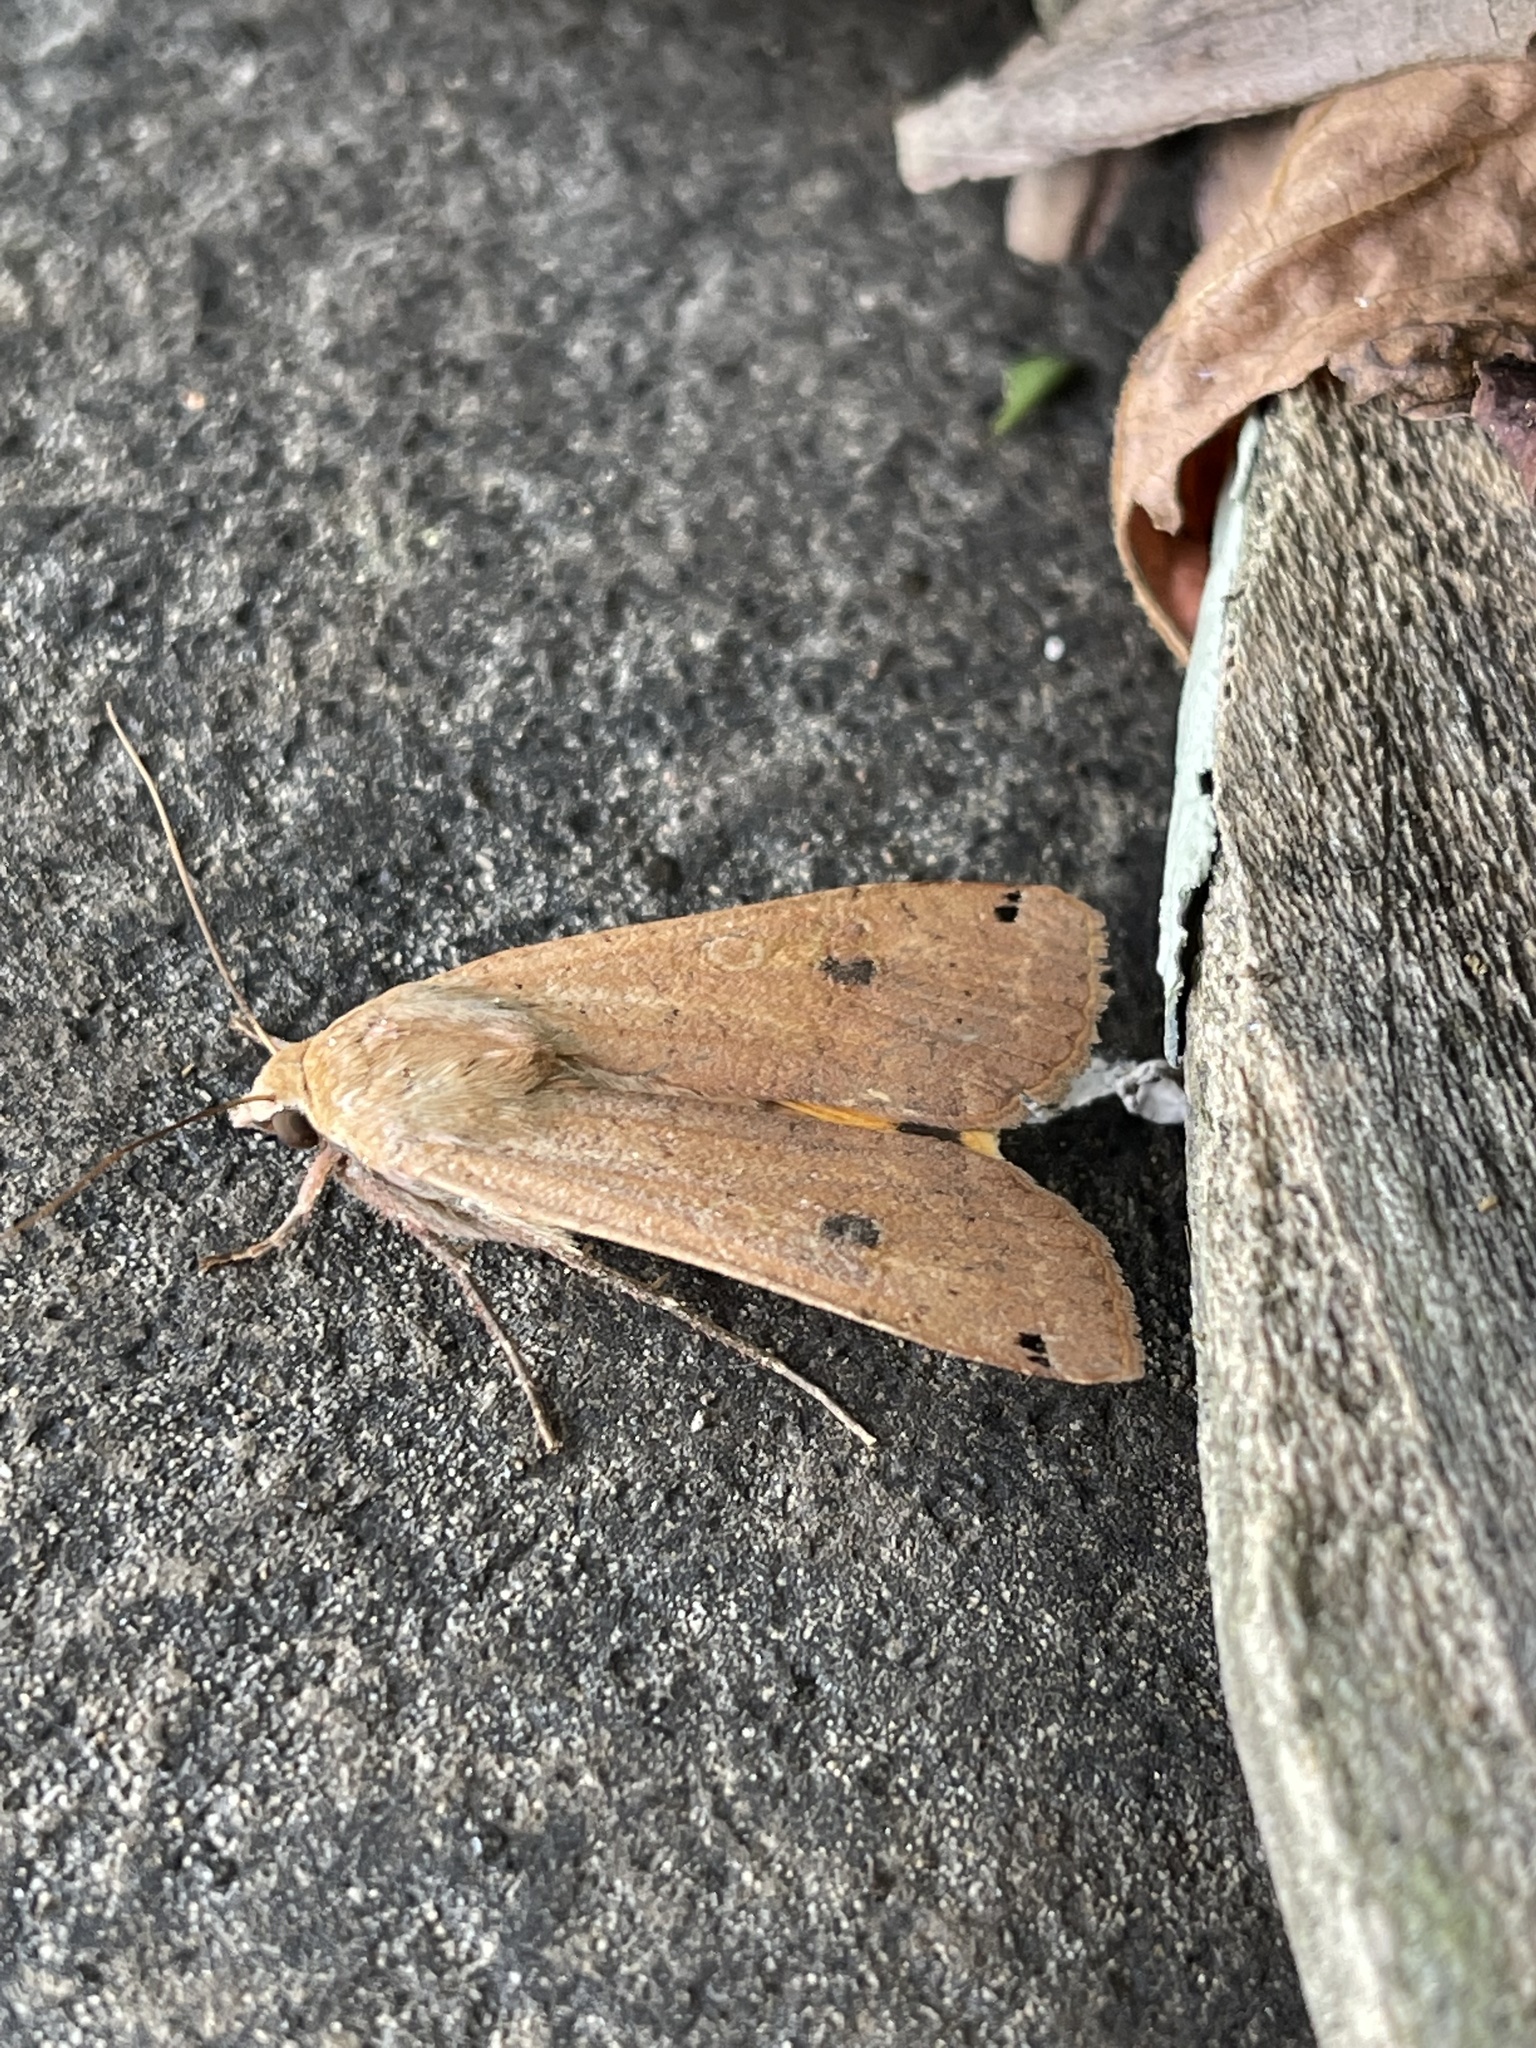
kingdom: Animalia
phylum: Arthropoda
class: Insecta
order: Lepidoptera
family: Noctuidae
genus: Noctua
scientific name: Noctua pronuba
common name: Large yellow underwing
